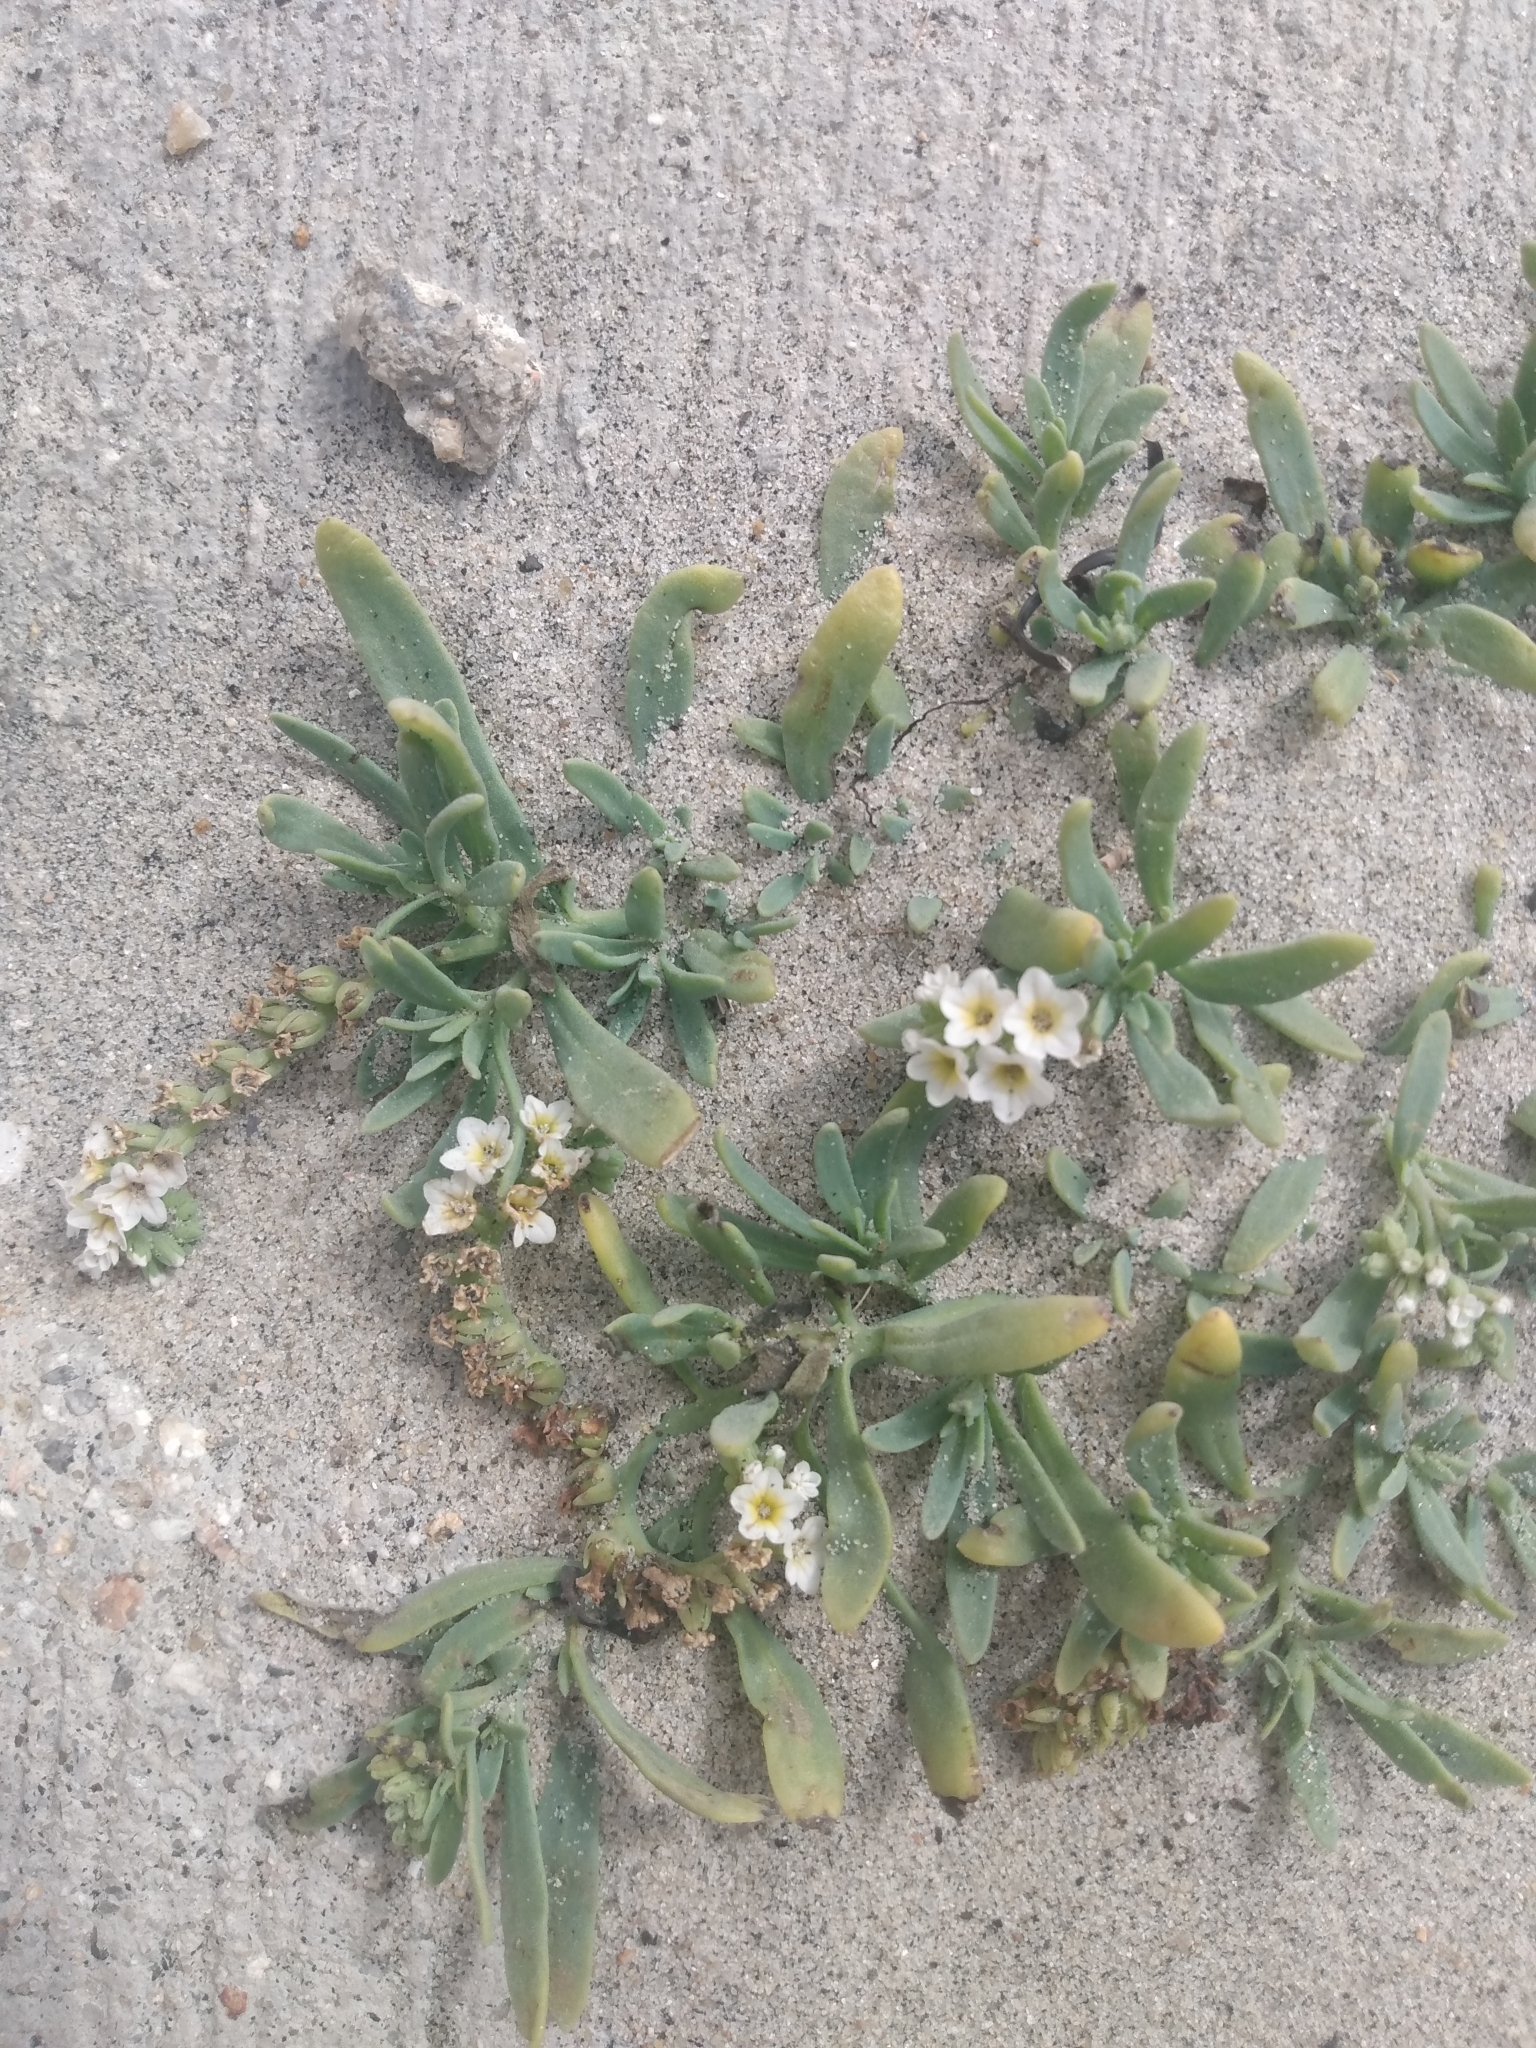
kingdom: Plantae
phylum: Tracheophyta
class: Magnoliopsida
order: Boraginales
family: Heliotropiaceae
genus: Heliotropium
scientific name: Heliotropium curassavicum
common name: Seaside heliotrope
